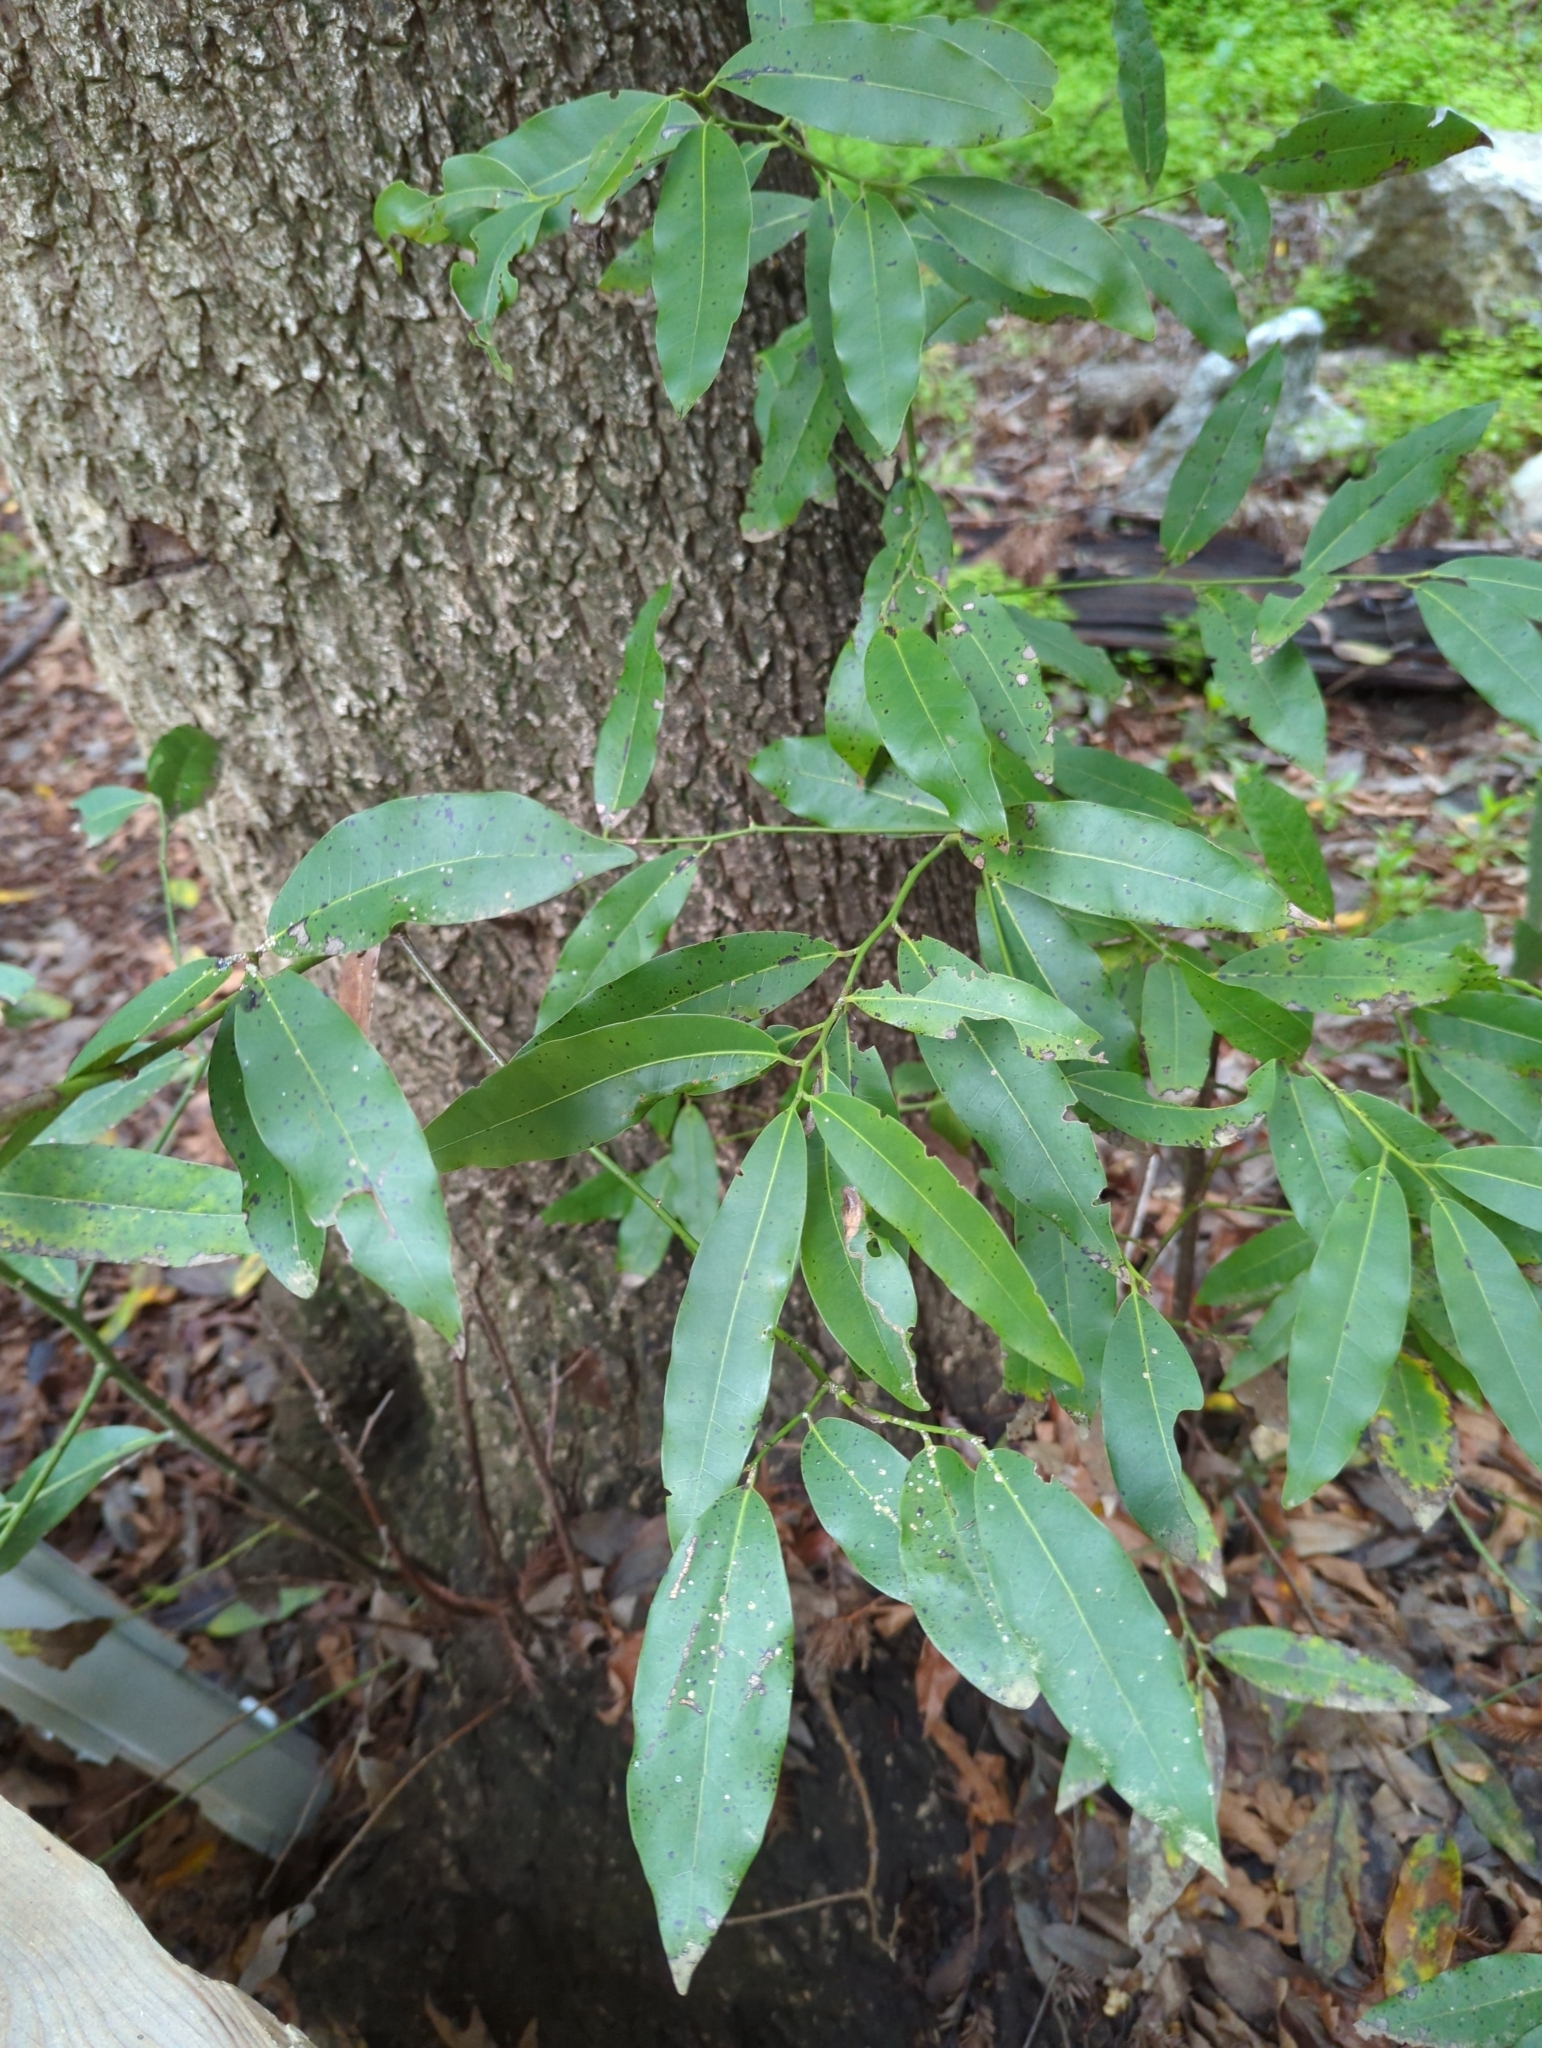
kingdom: Plantae
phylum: Tracheophyta
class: Magnoliopsida
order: Laurales
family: Lauraceae
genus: Umbellularia
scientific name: Umbellularia californica
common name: California bay
